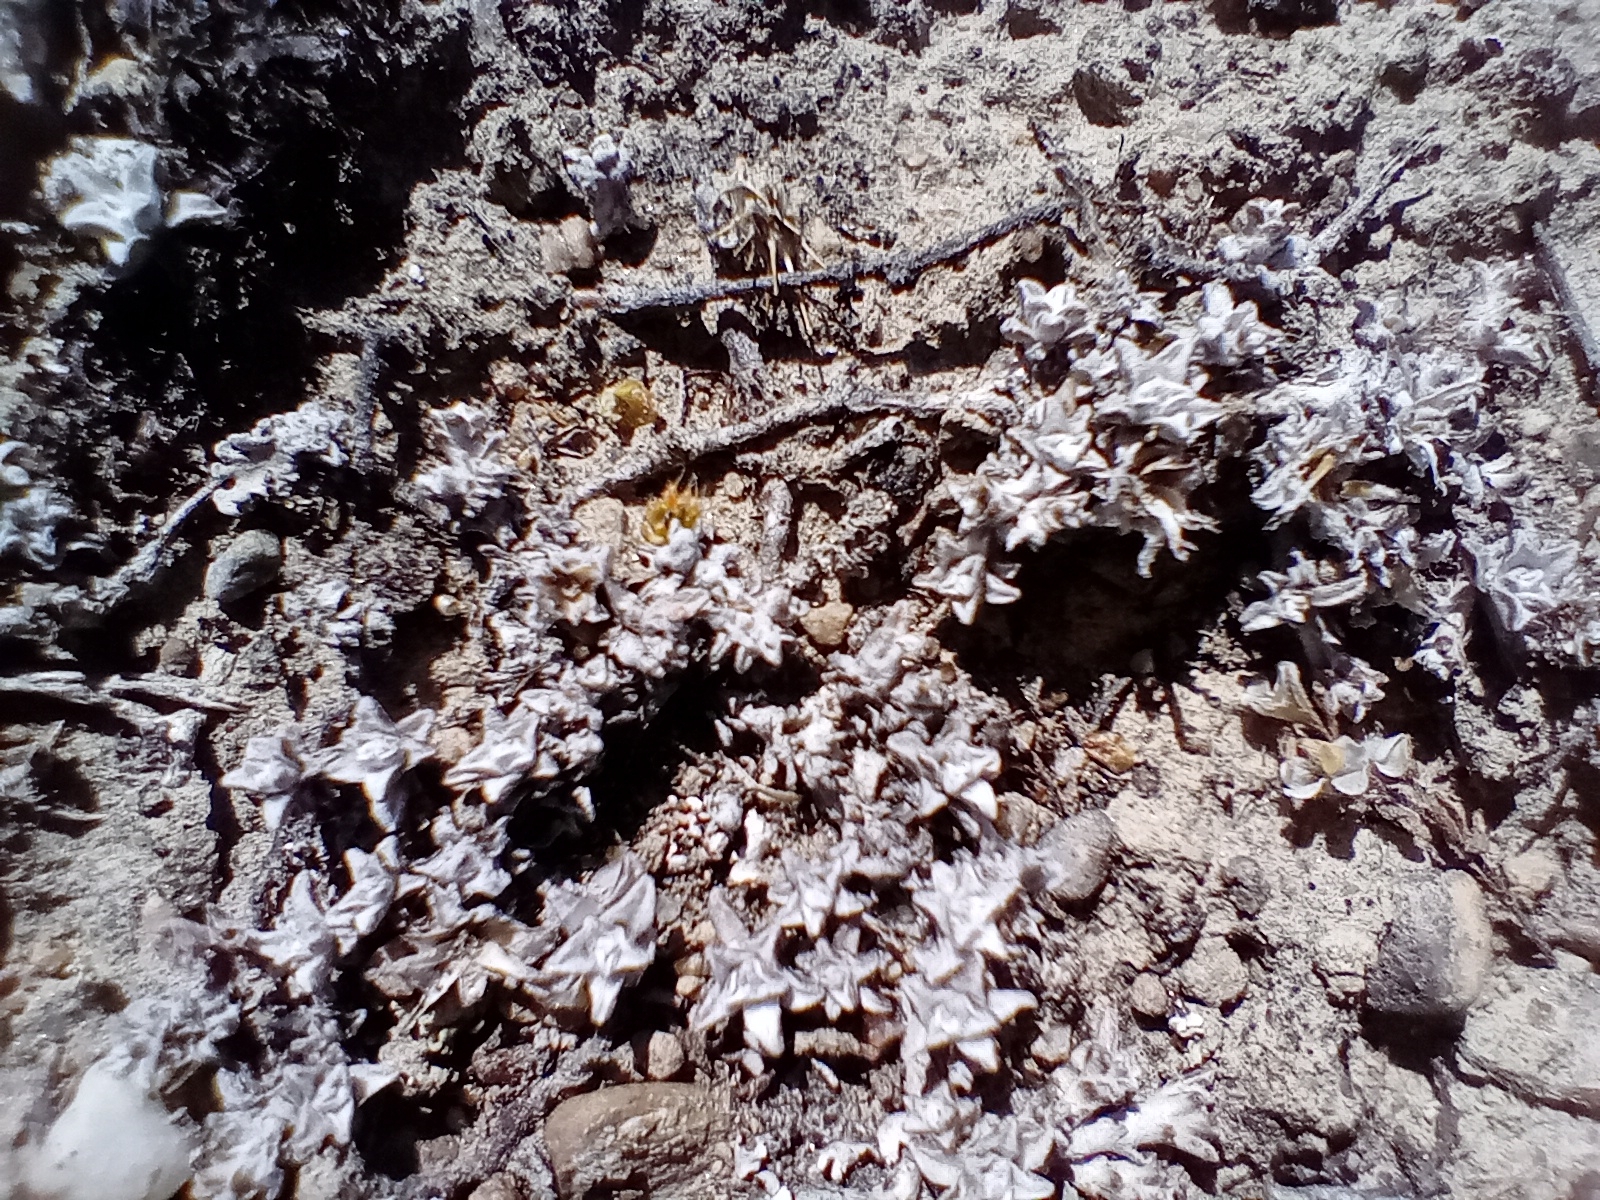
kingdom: Plantae
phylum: Tracheophyta
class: Magnoliopsida
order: Asterales
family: Asteraceae
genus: Raoulia
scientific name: Raoulia beauverdii
